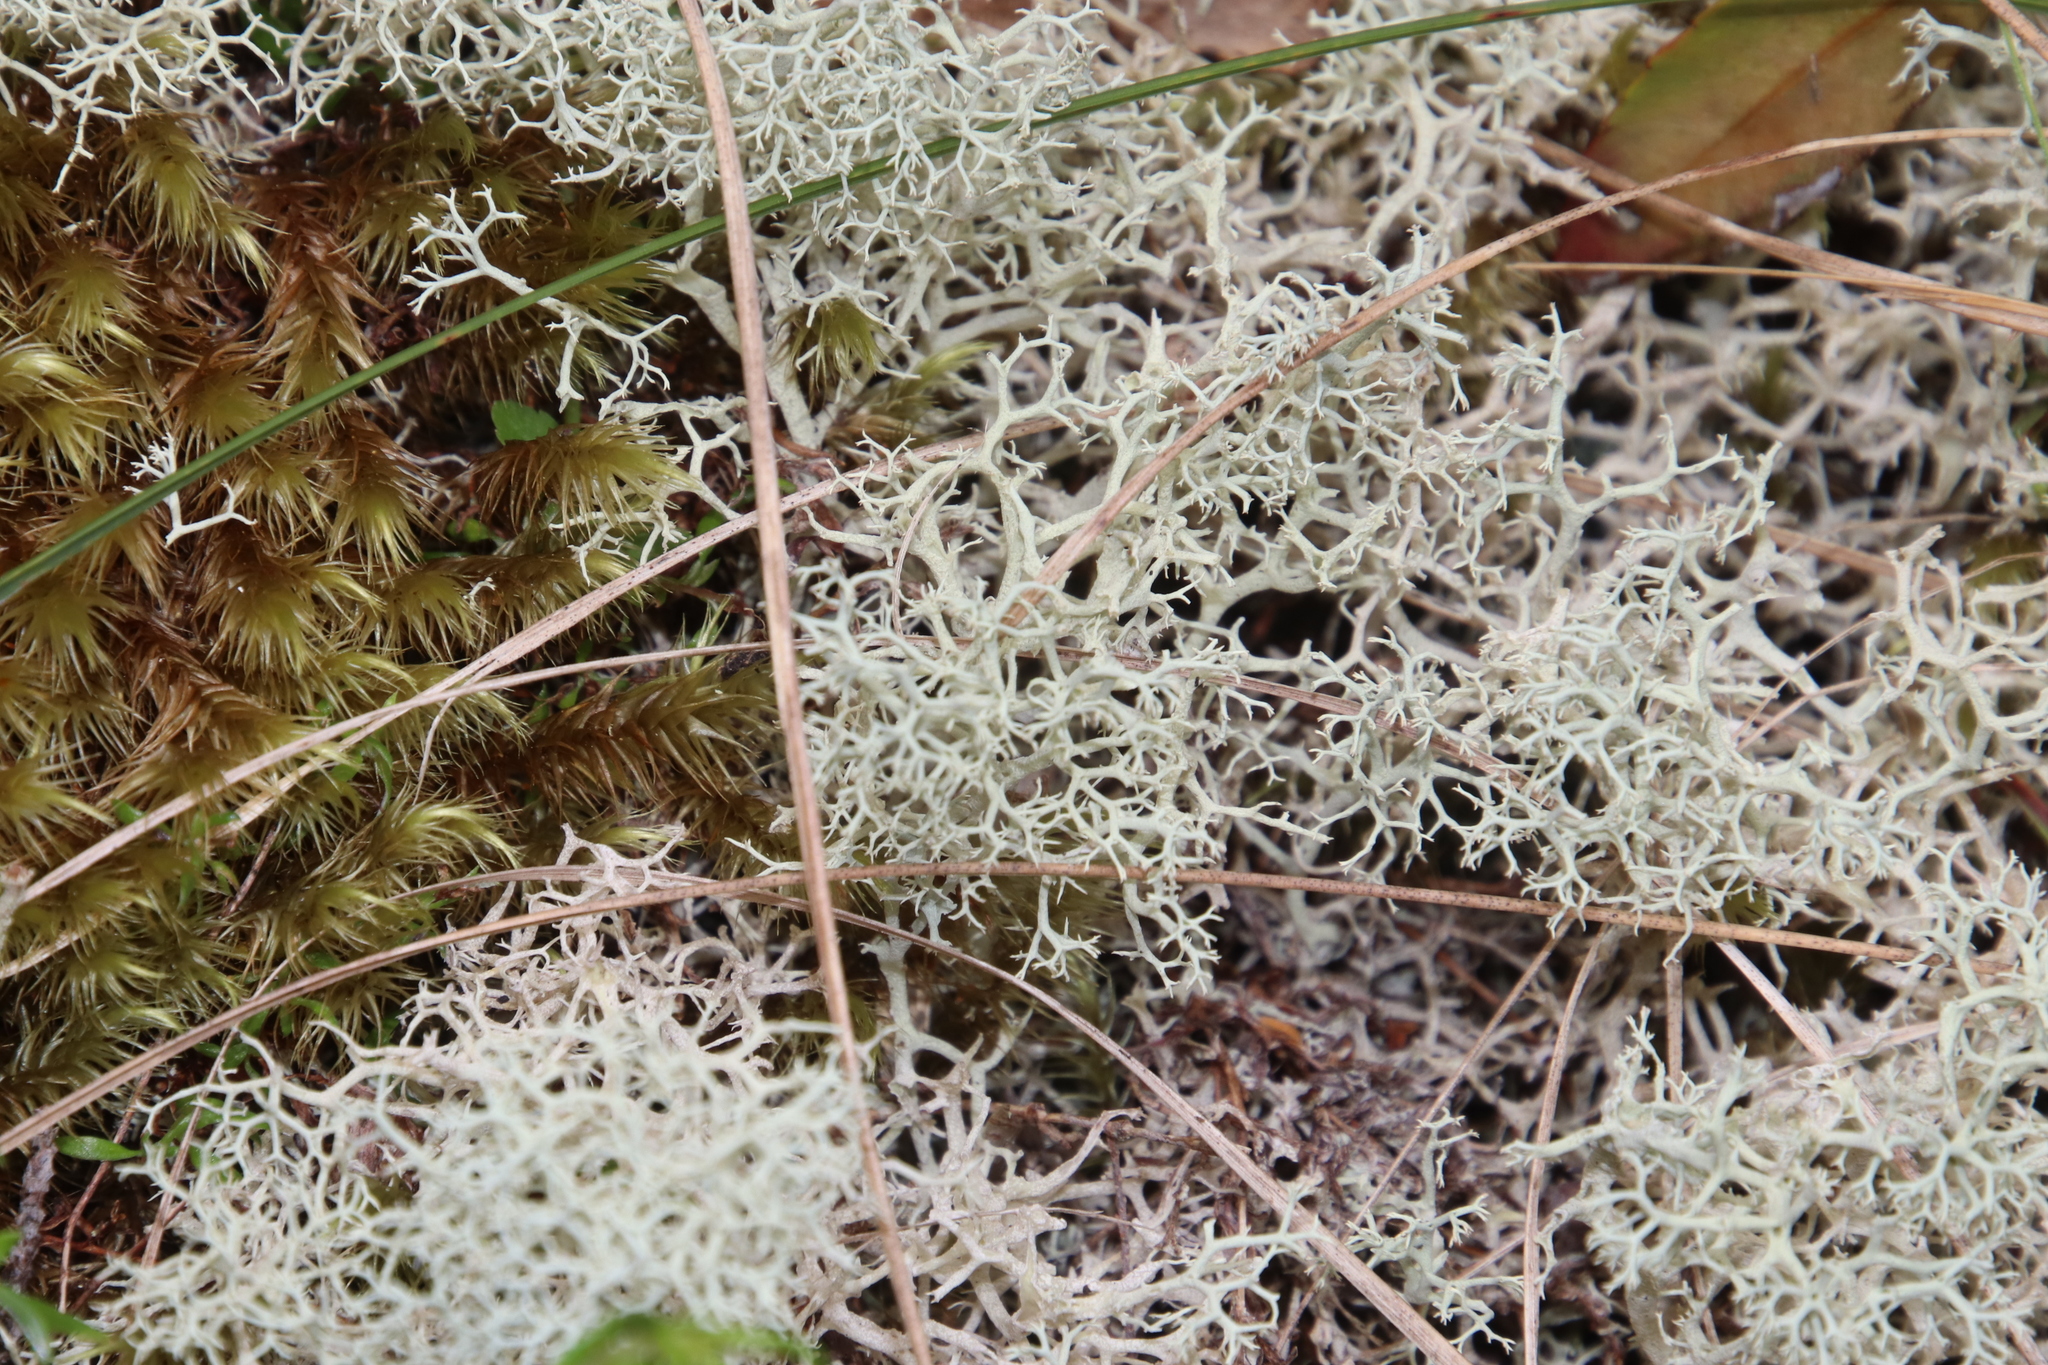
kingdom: Fungi
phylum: Ascomycota
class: Lecanoromycetes
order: Lecanorales
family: Cladoniaceae
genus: Cladonia
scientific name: Cladonia confusa
